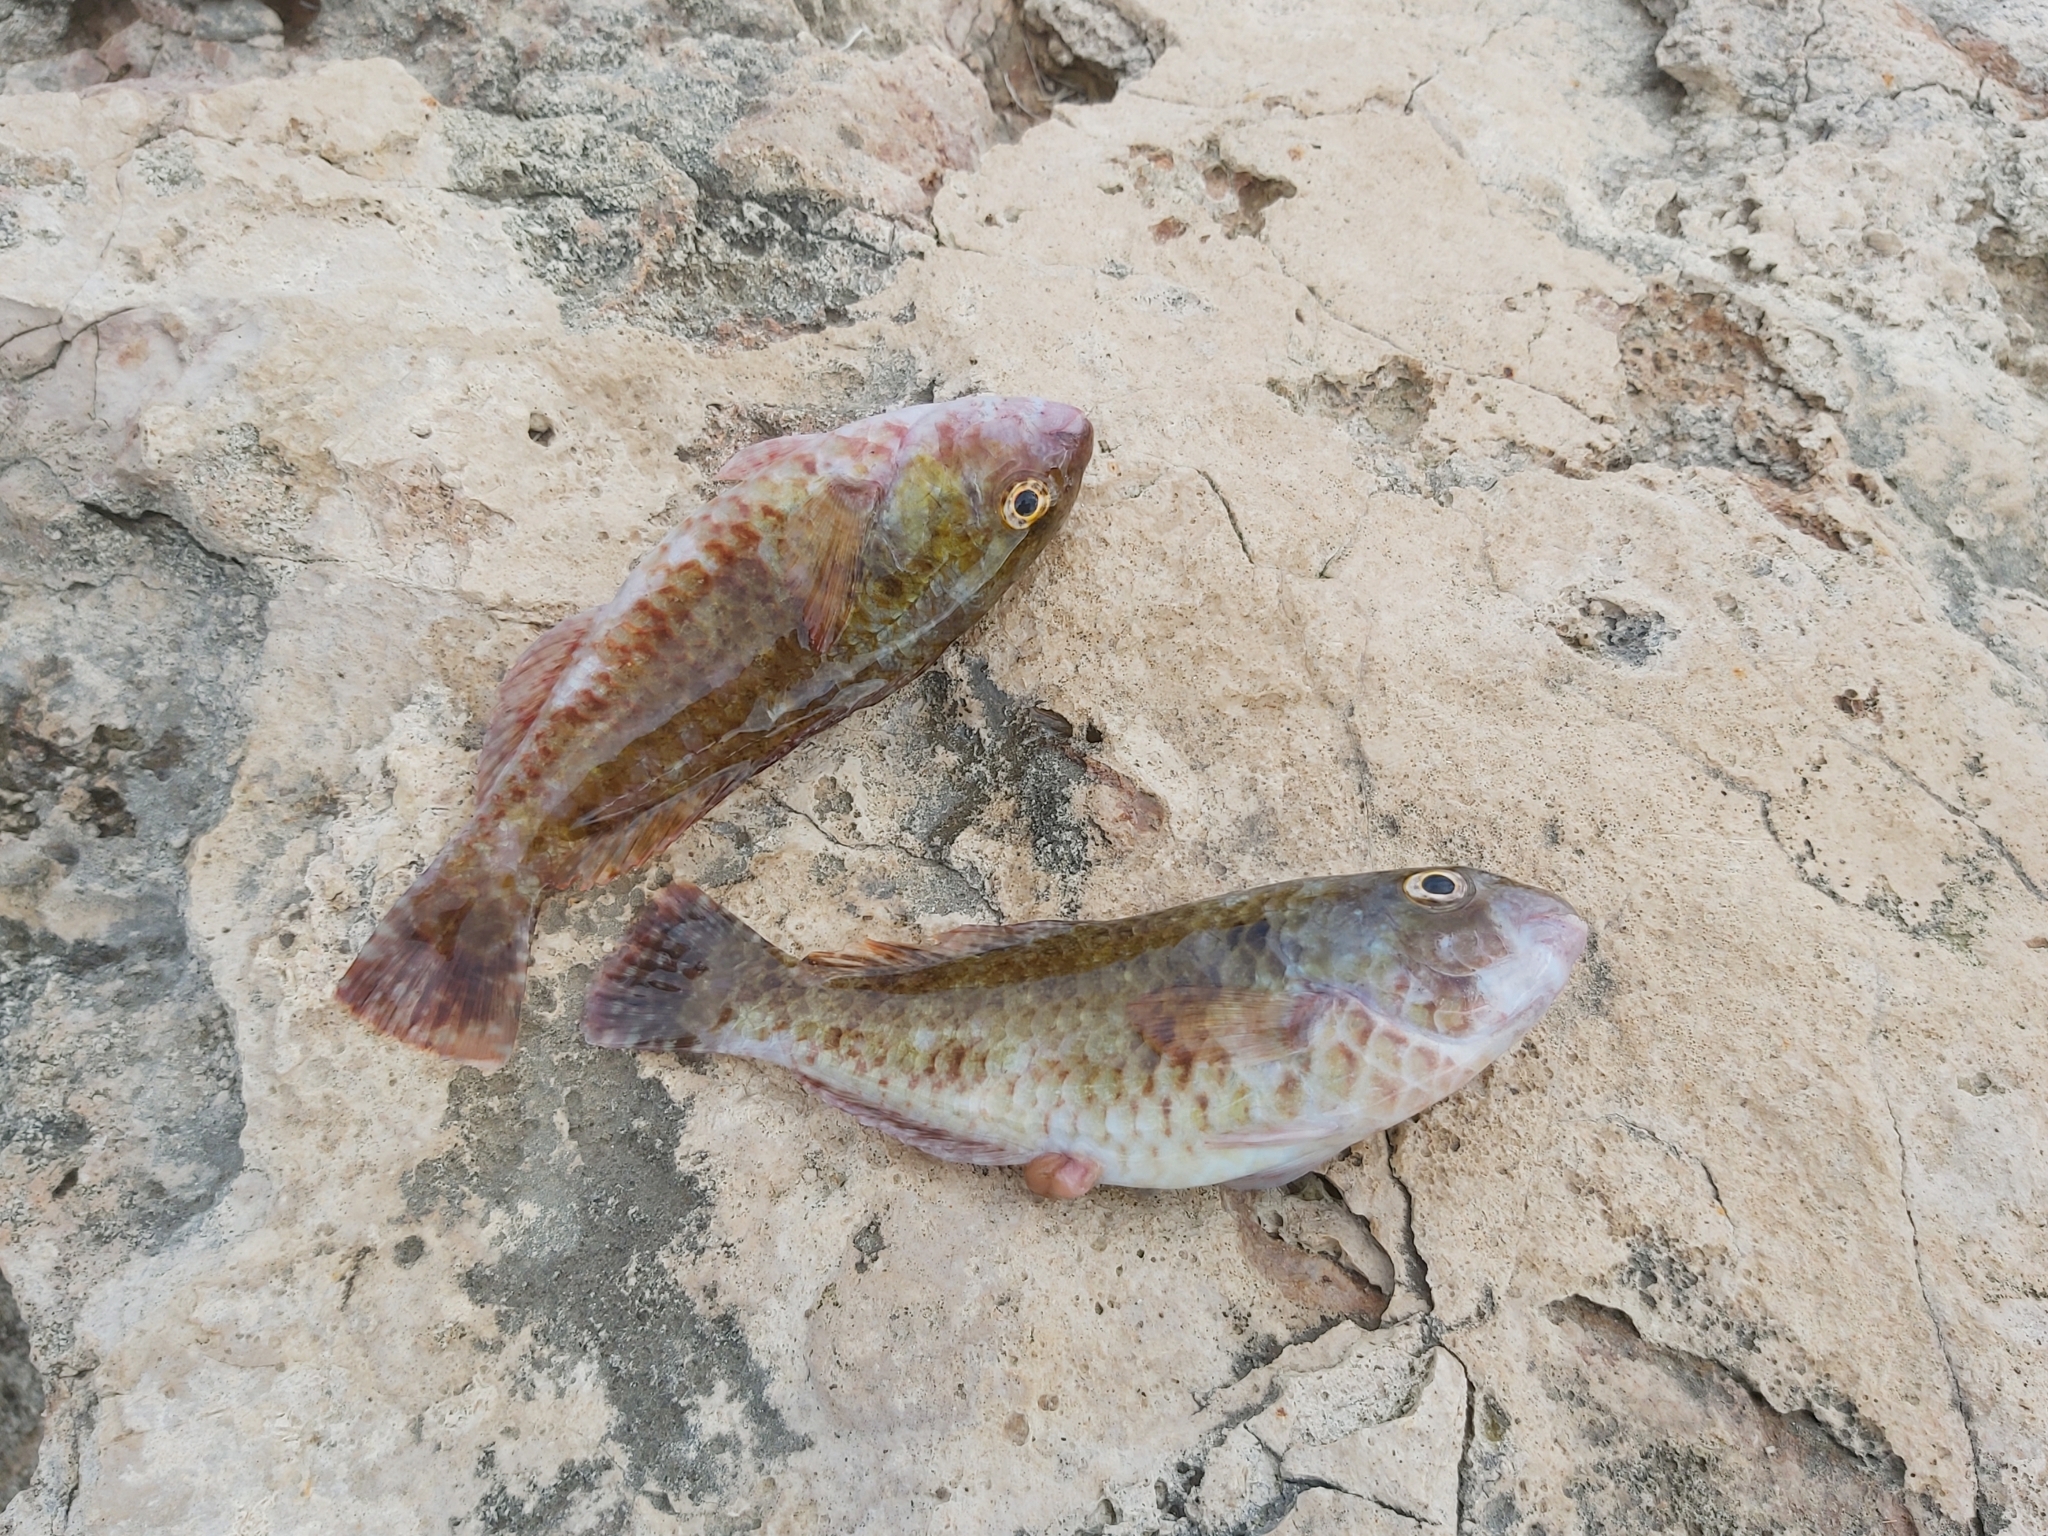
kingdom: Animalia
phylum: Chordata
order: Perciformes
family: Scaridae
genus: Sparisoma
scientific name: Sparisoma cretense
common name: Parrotfish
